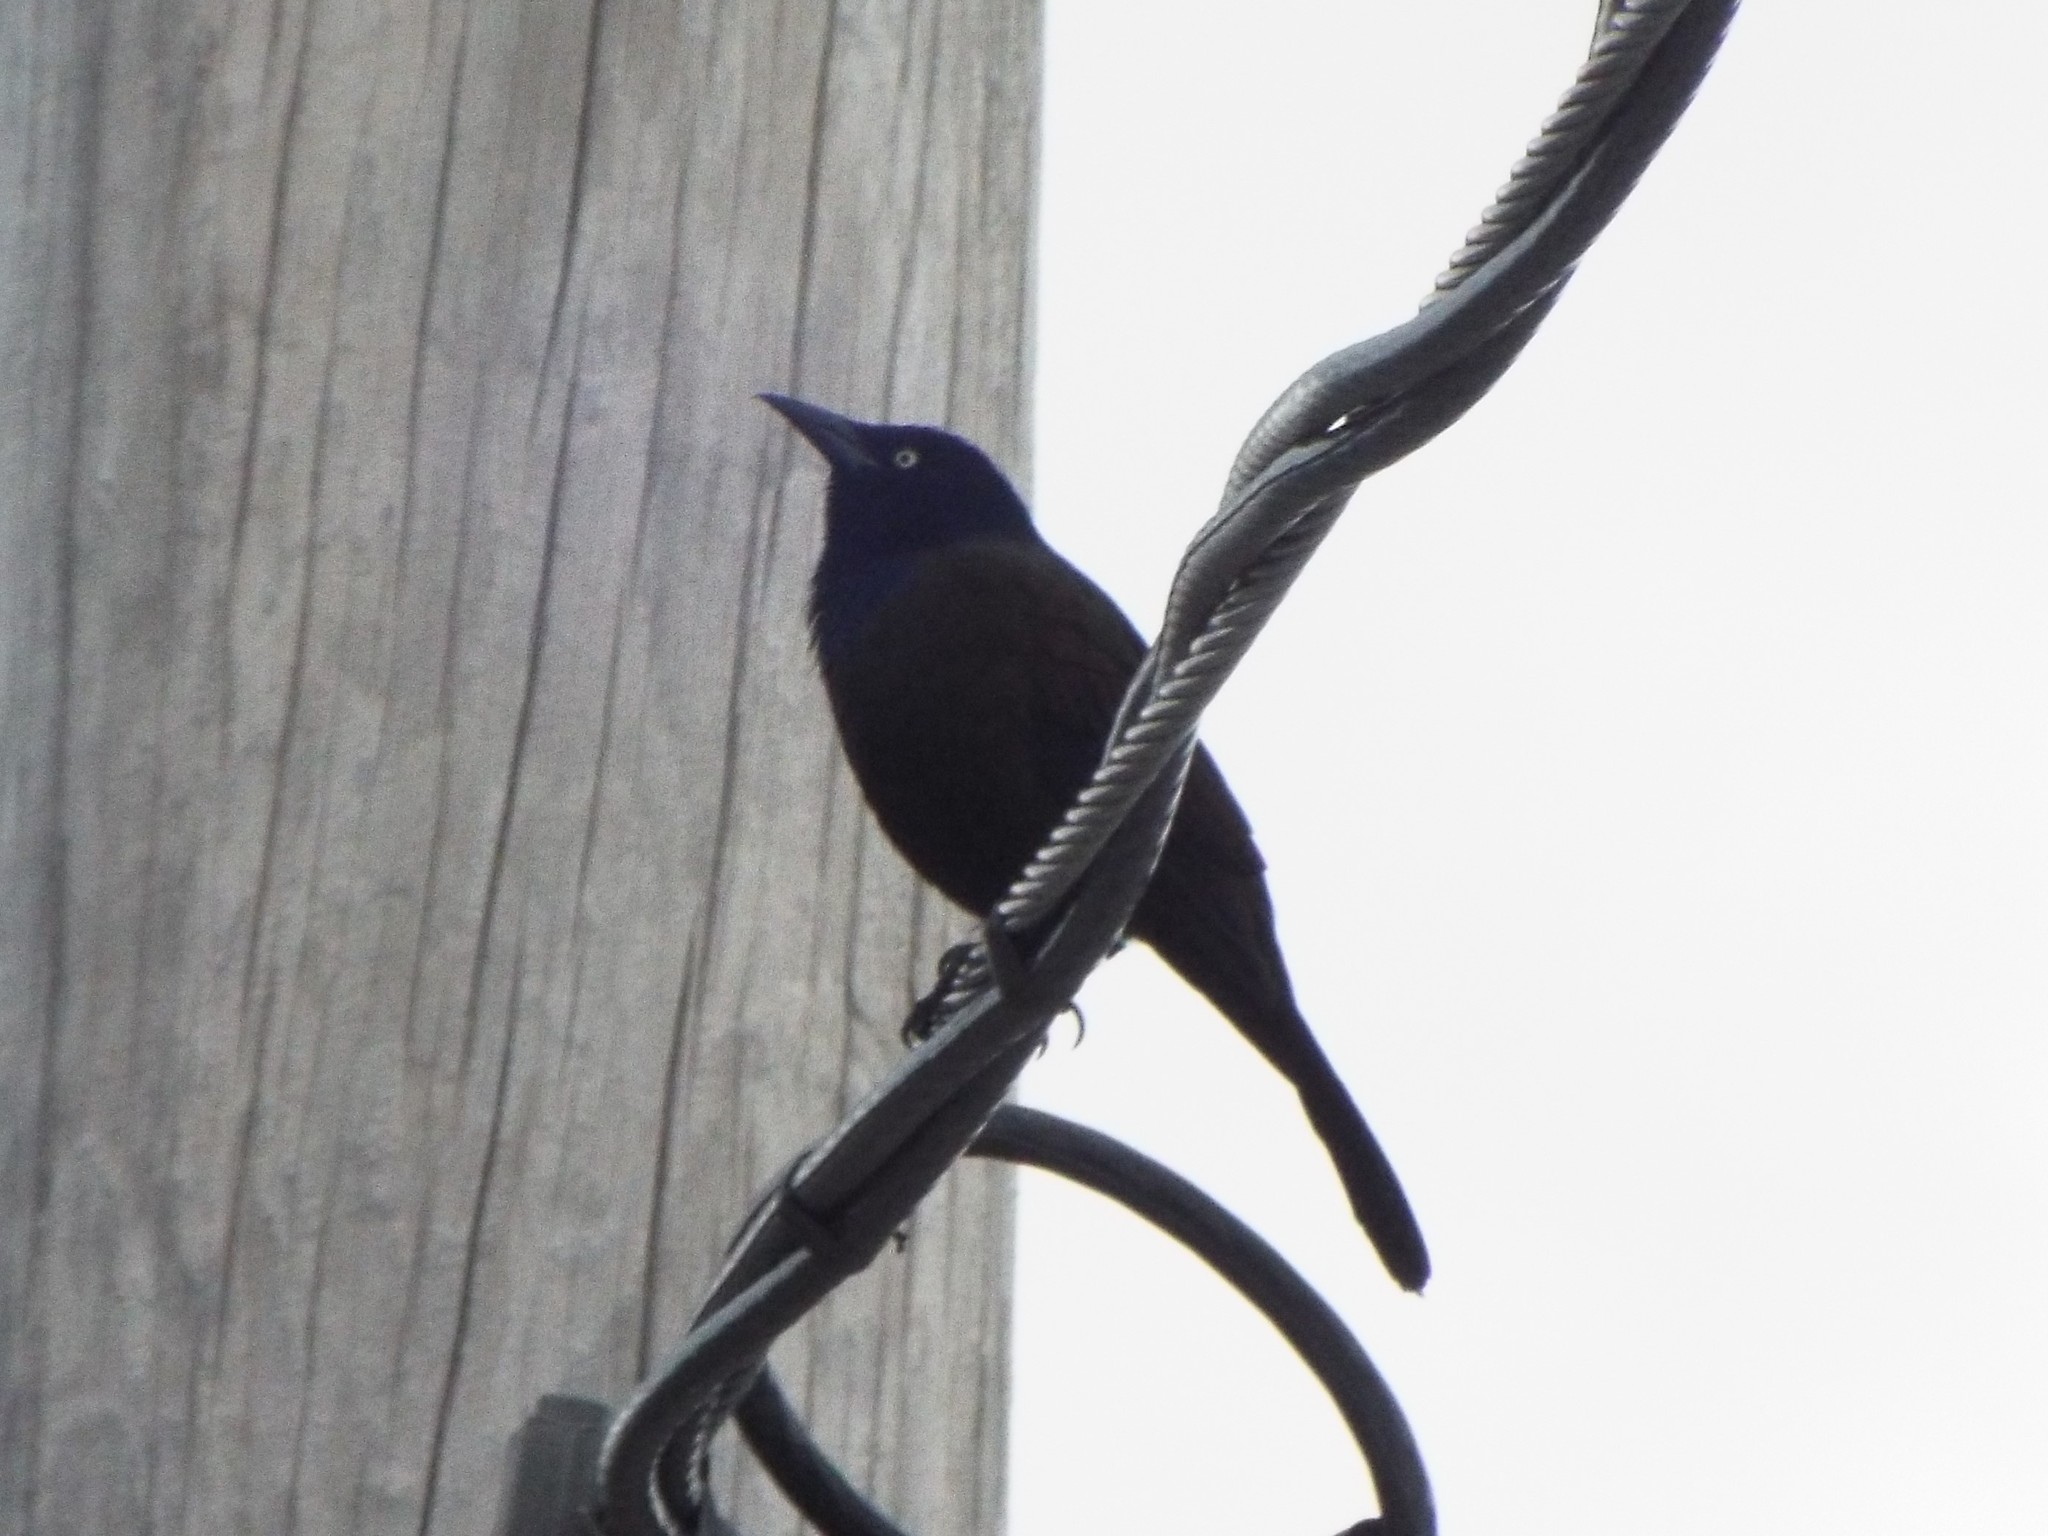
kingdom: Animalia
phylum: Chordata
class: Aves
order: Passeriformes
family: Icteridae
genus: Quiscalus
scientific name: Quiscalus quiscula
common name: Common grackle
